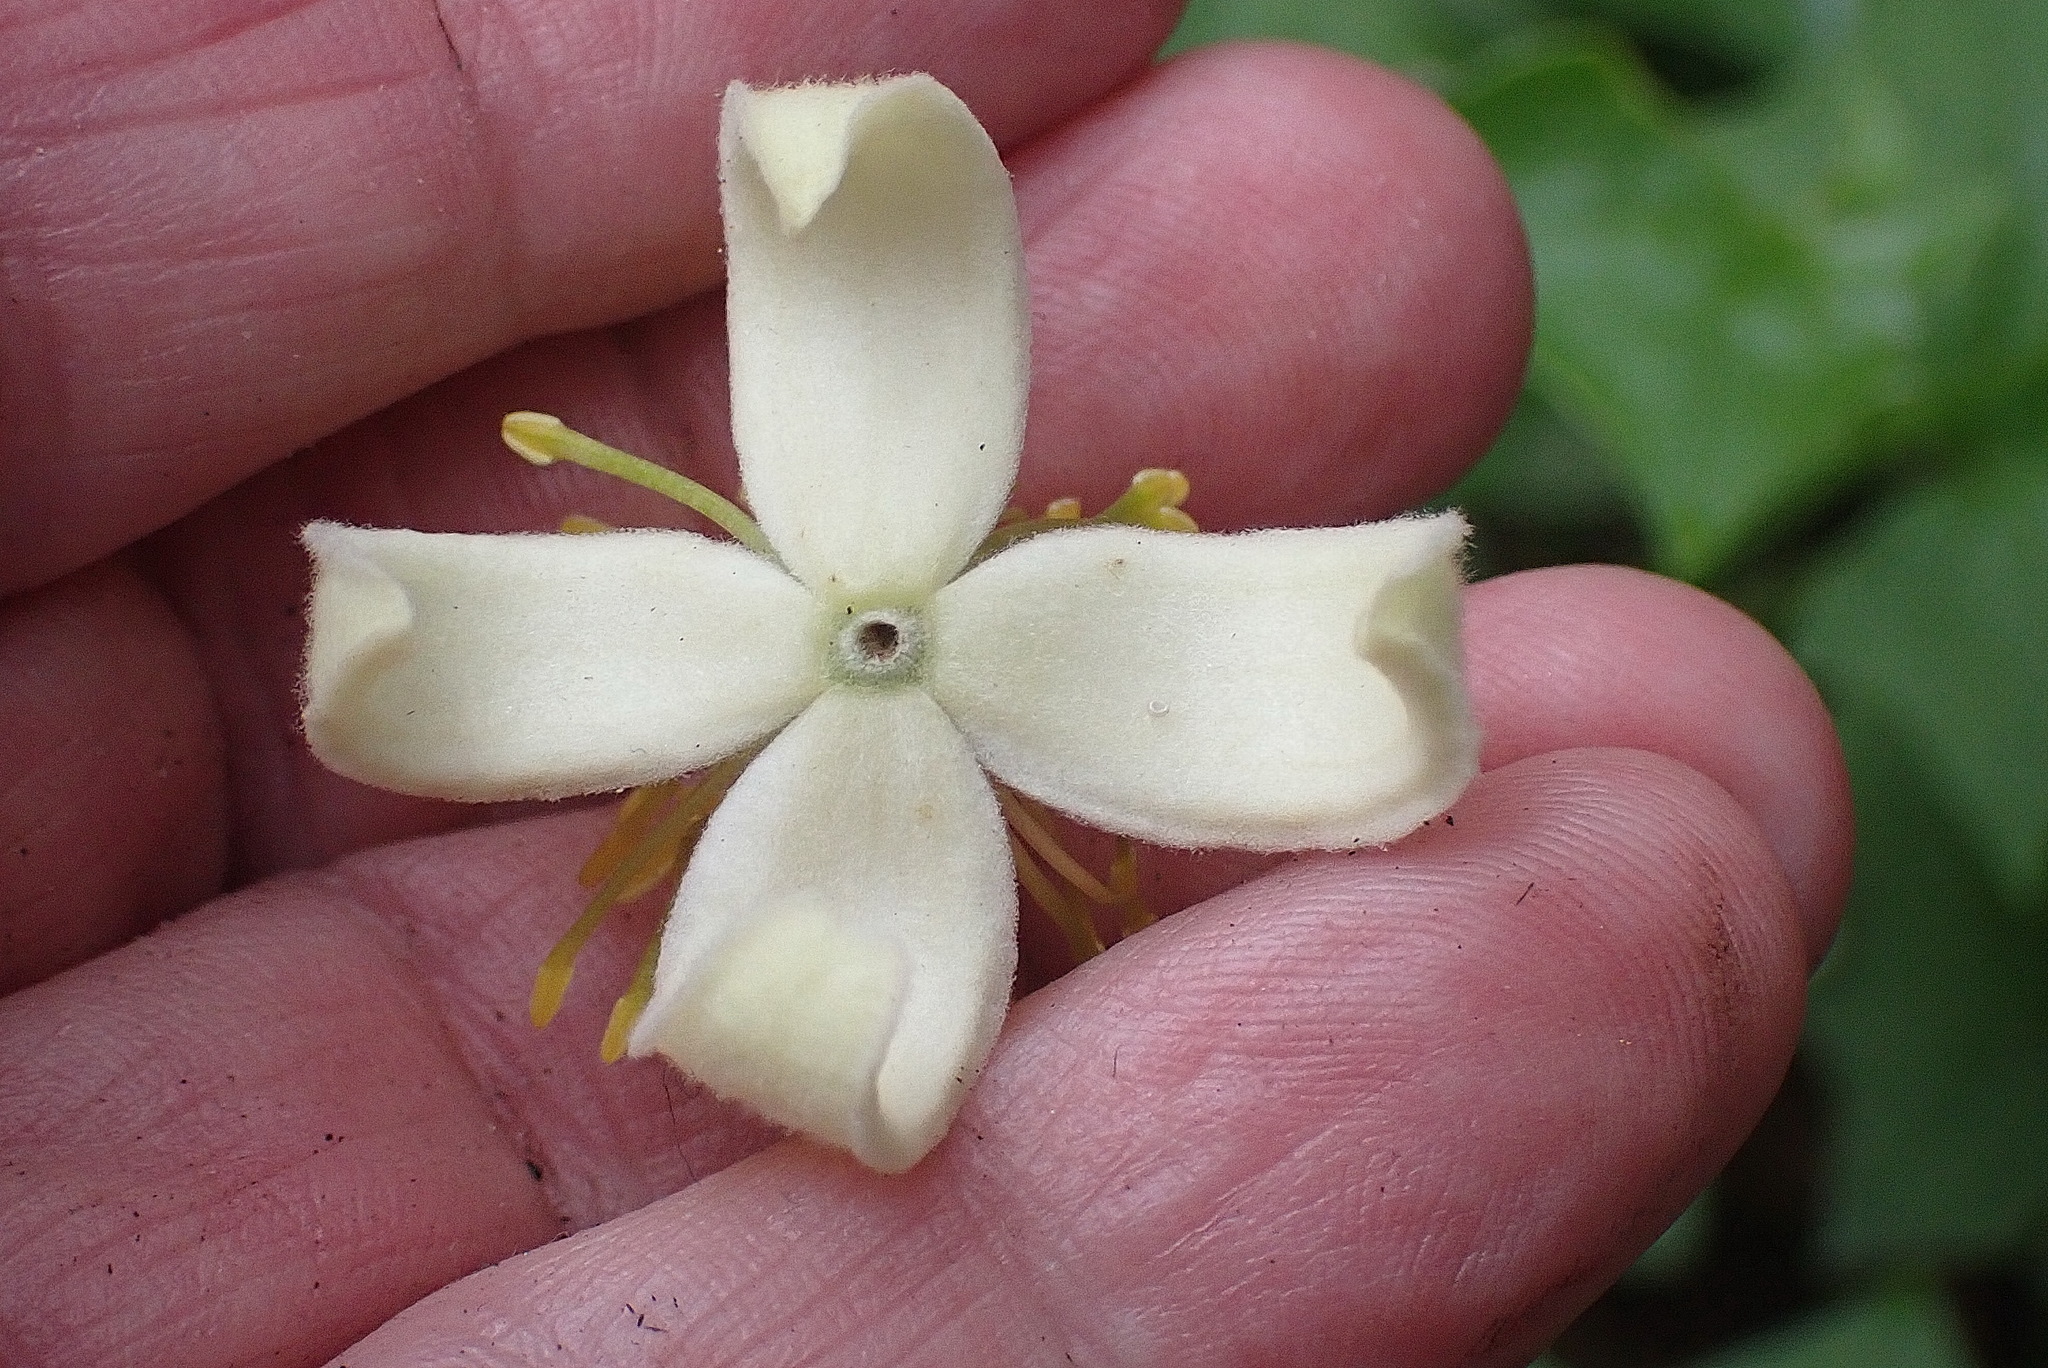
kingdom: Plantae
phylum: Tracheophyta
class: Magnoliopsida
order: Ranunculales
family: Ranunculaceae
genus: Clematis
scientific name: Clematis brachiata
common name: Traveler's-joy
